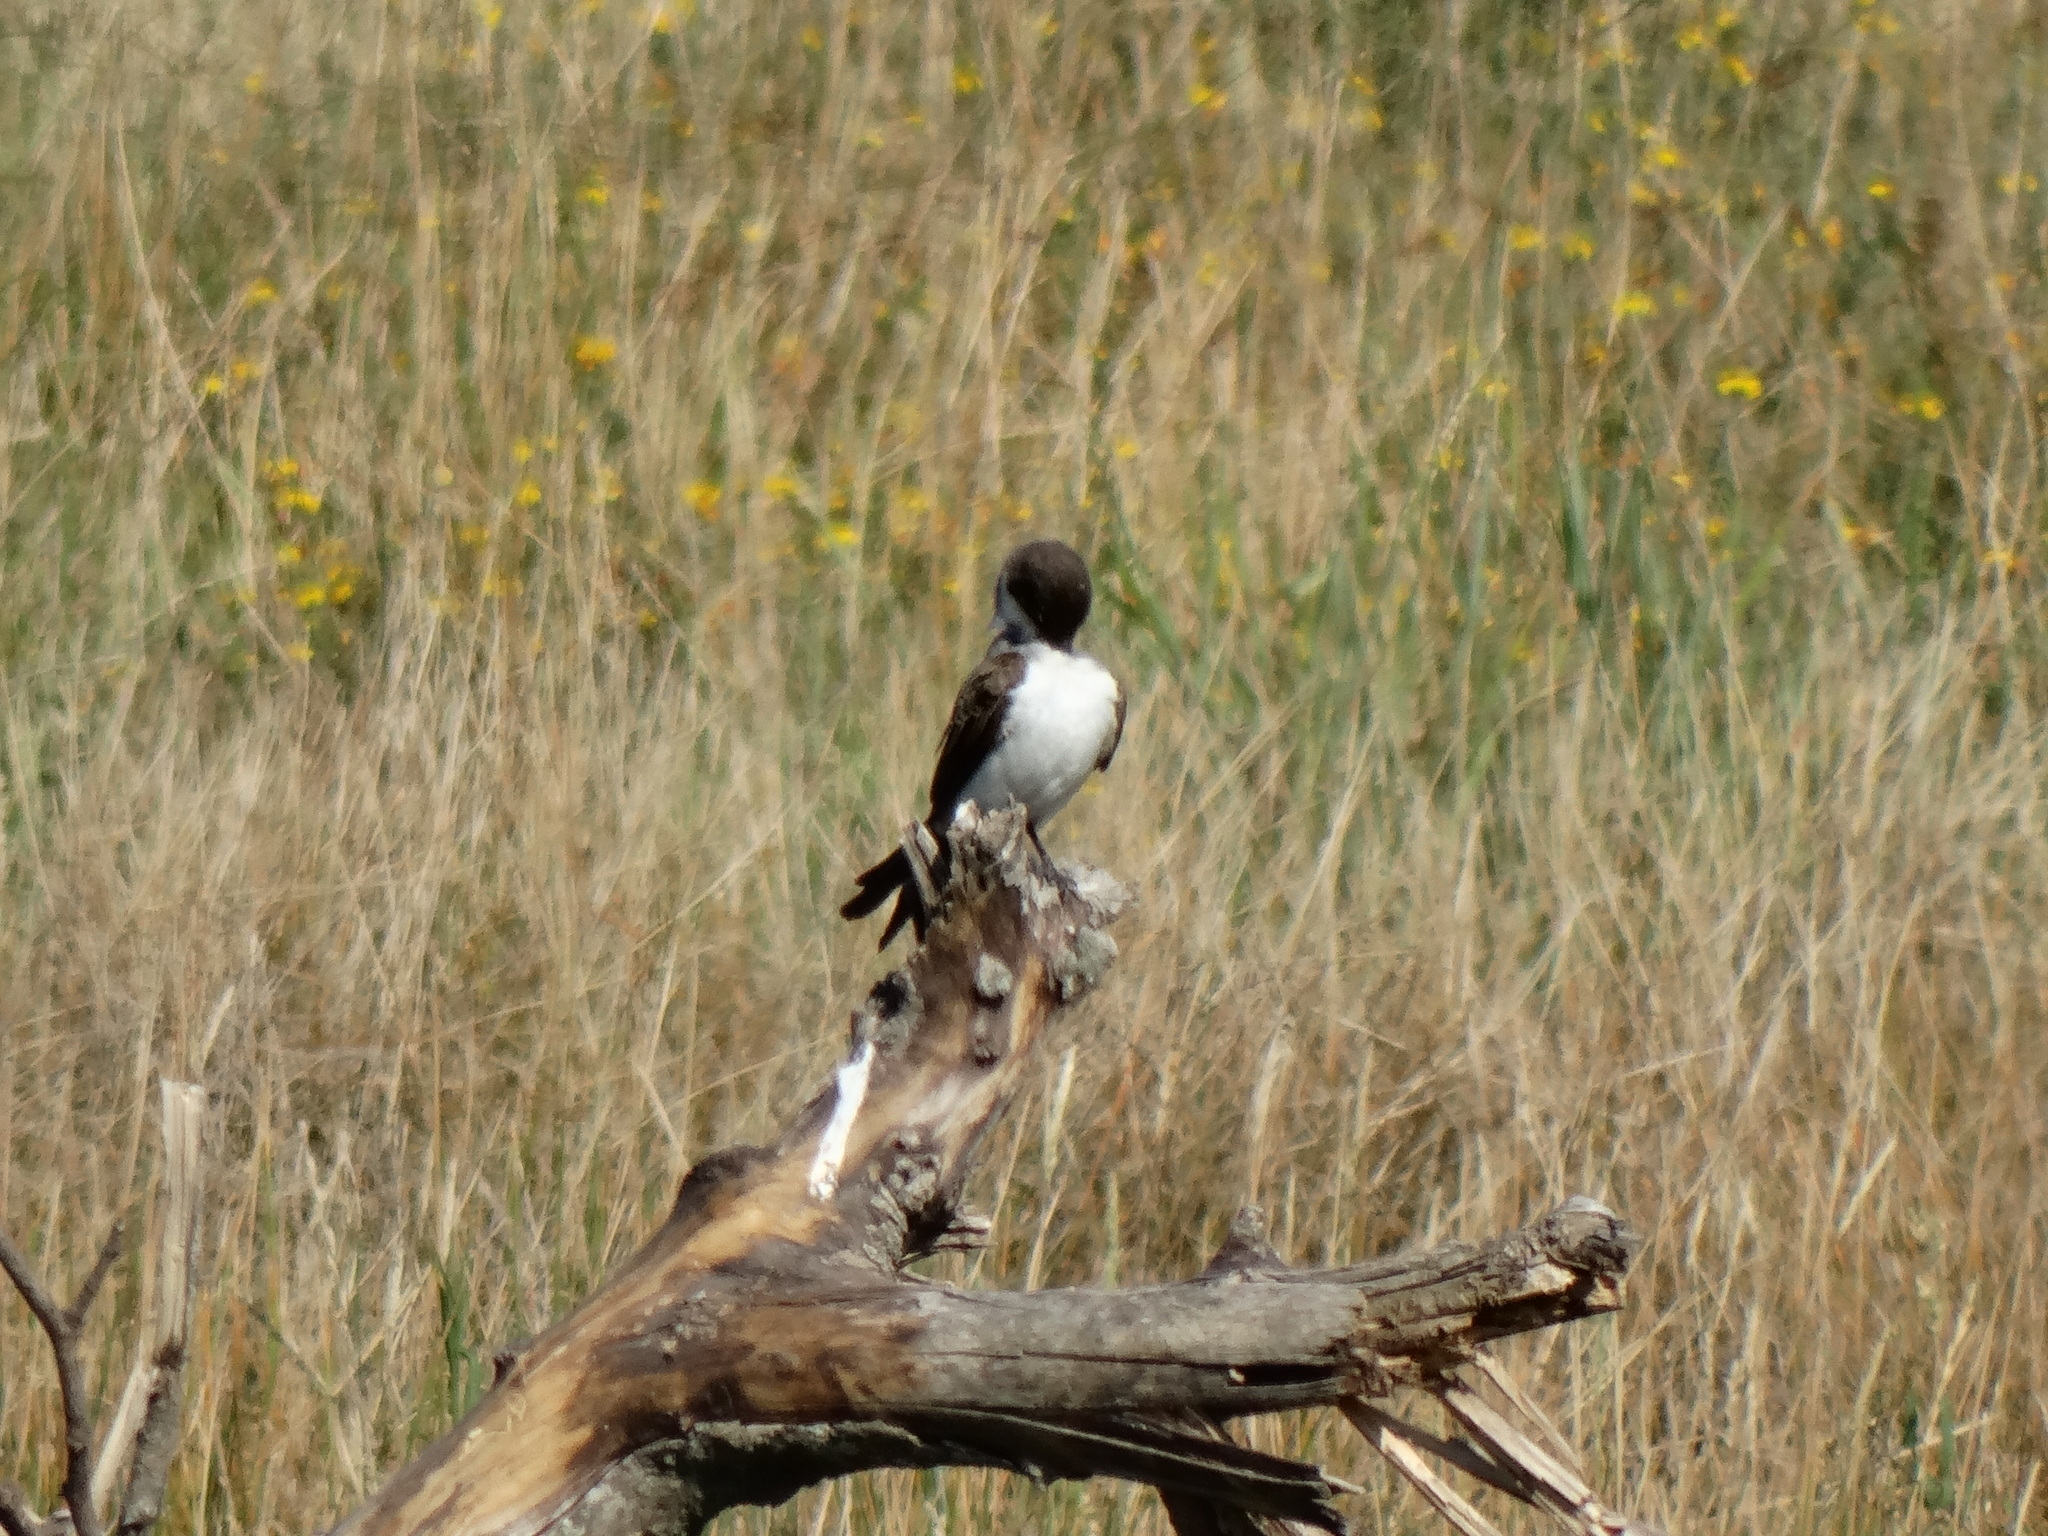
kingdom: Animalia
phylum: Chordata
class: Aves
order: Passeriformes
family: Tyrannidae
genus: Tyrannus
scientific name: Tyrannus savana
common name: Fork-tailed flycatcher
